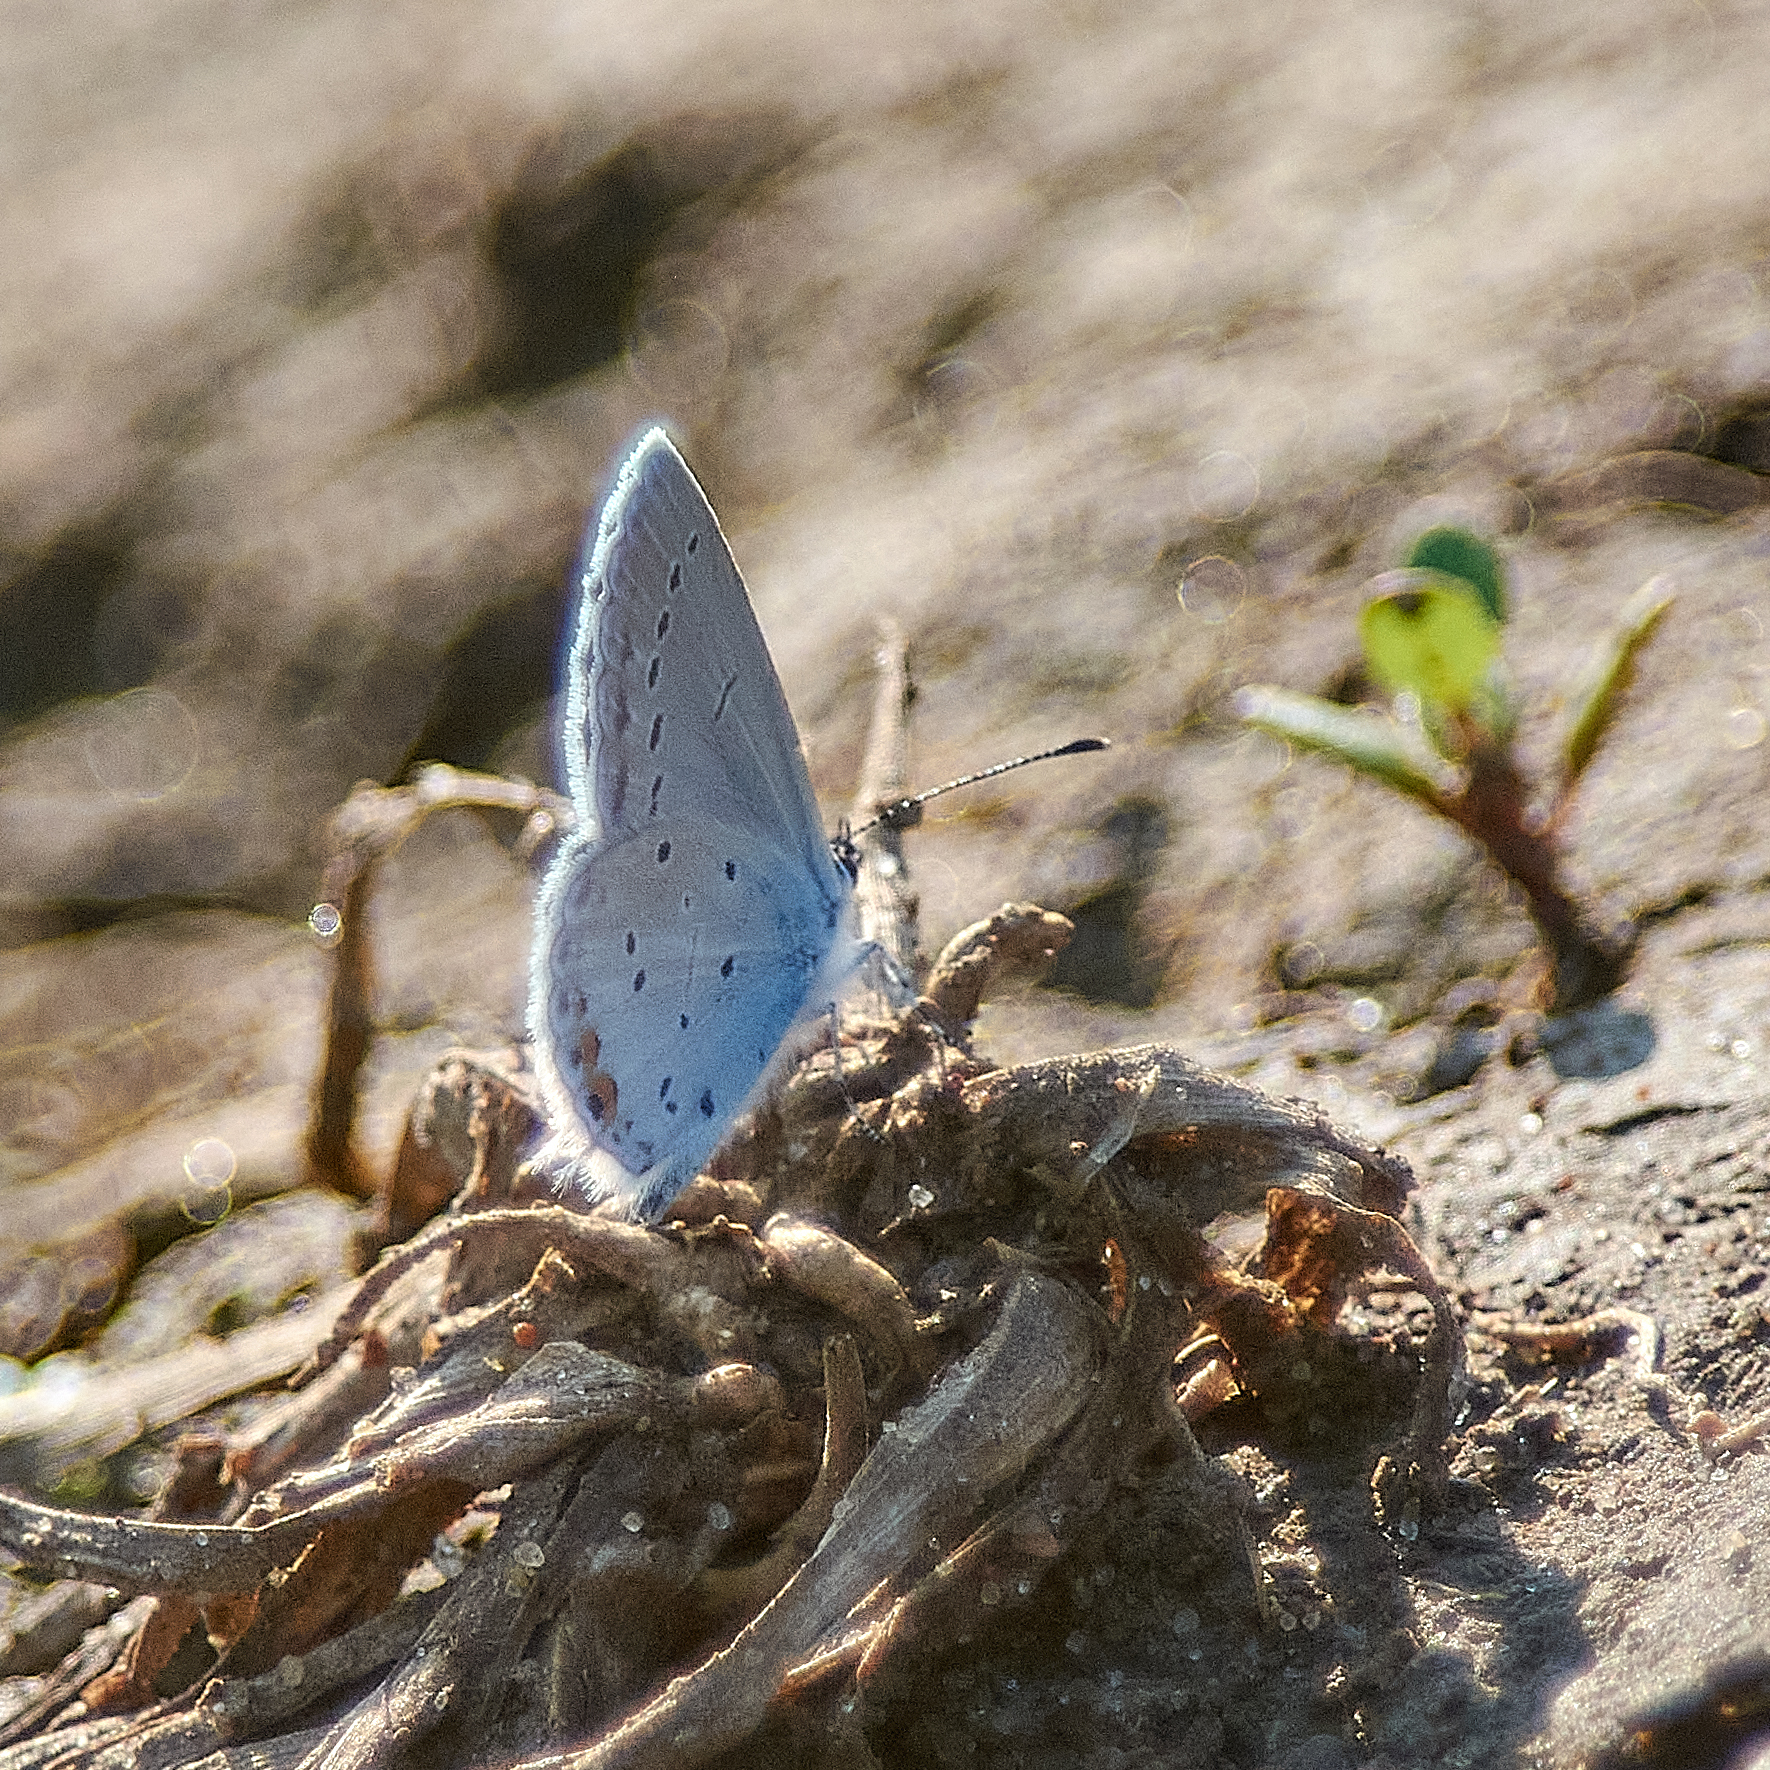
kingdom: Animalia
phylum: Arthropoda
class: Insecta
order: Lepidoptera
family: Lycaenidae
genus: Elkalyce
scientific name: Elkalyce argiades
